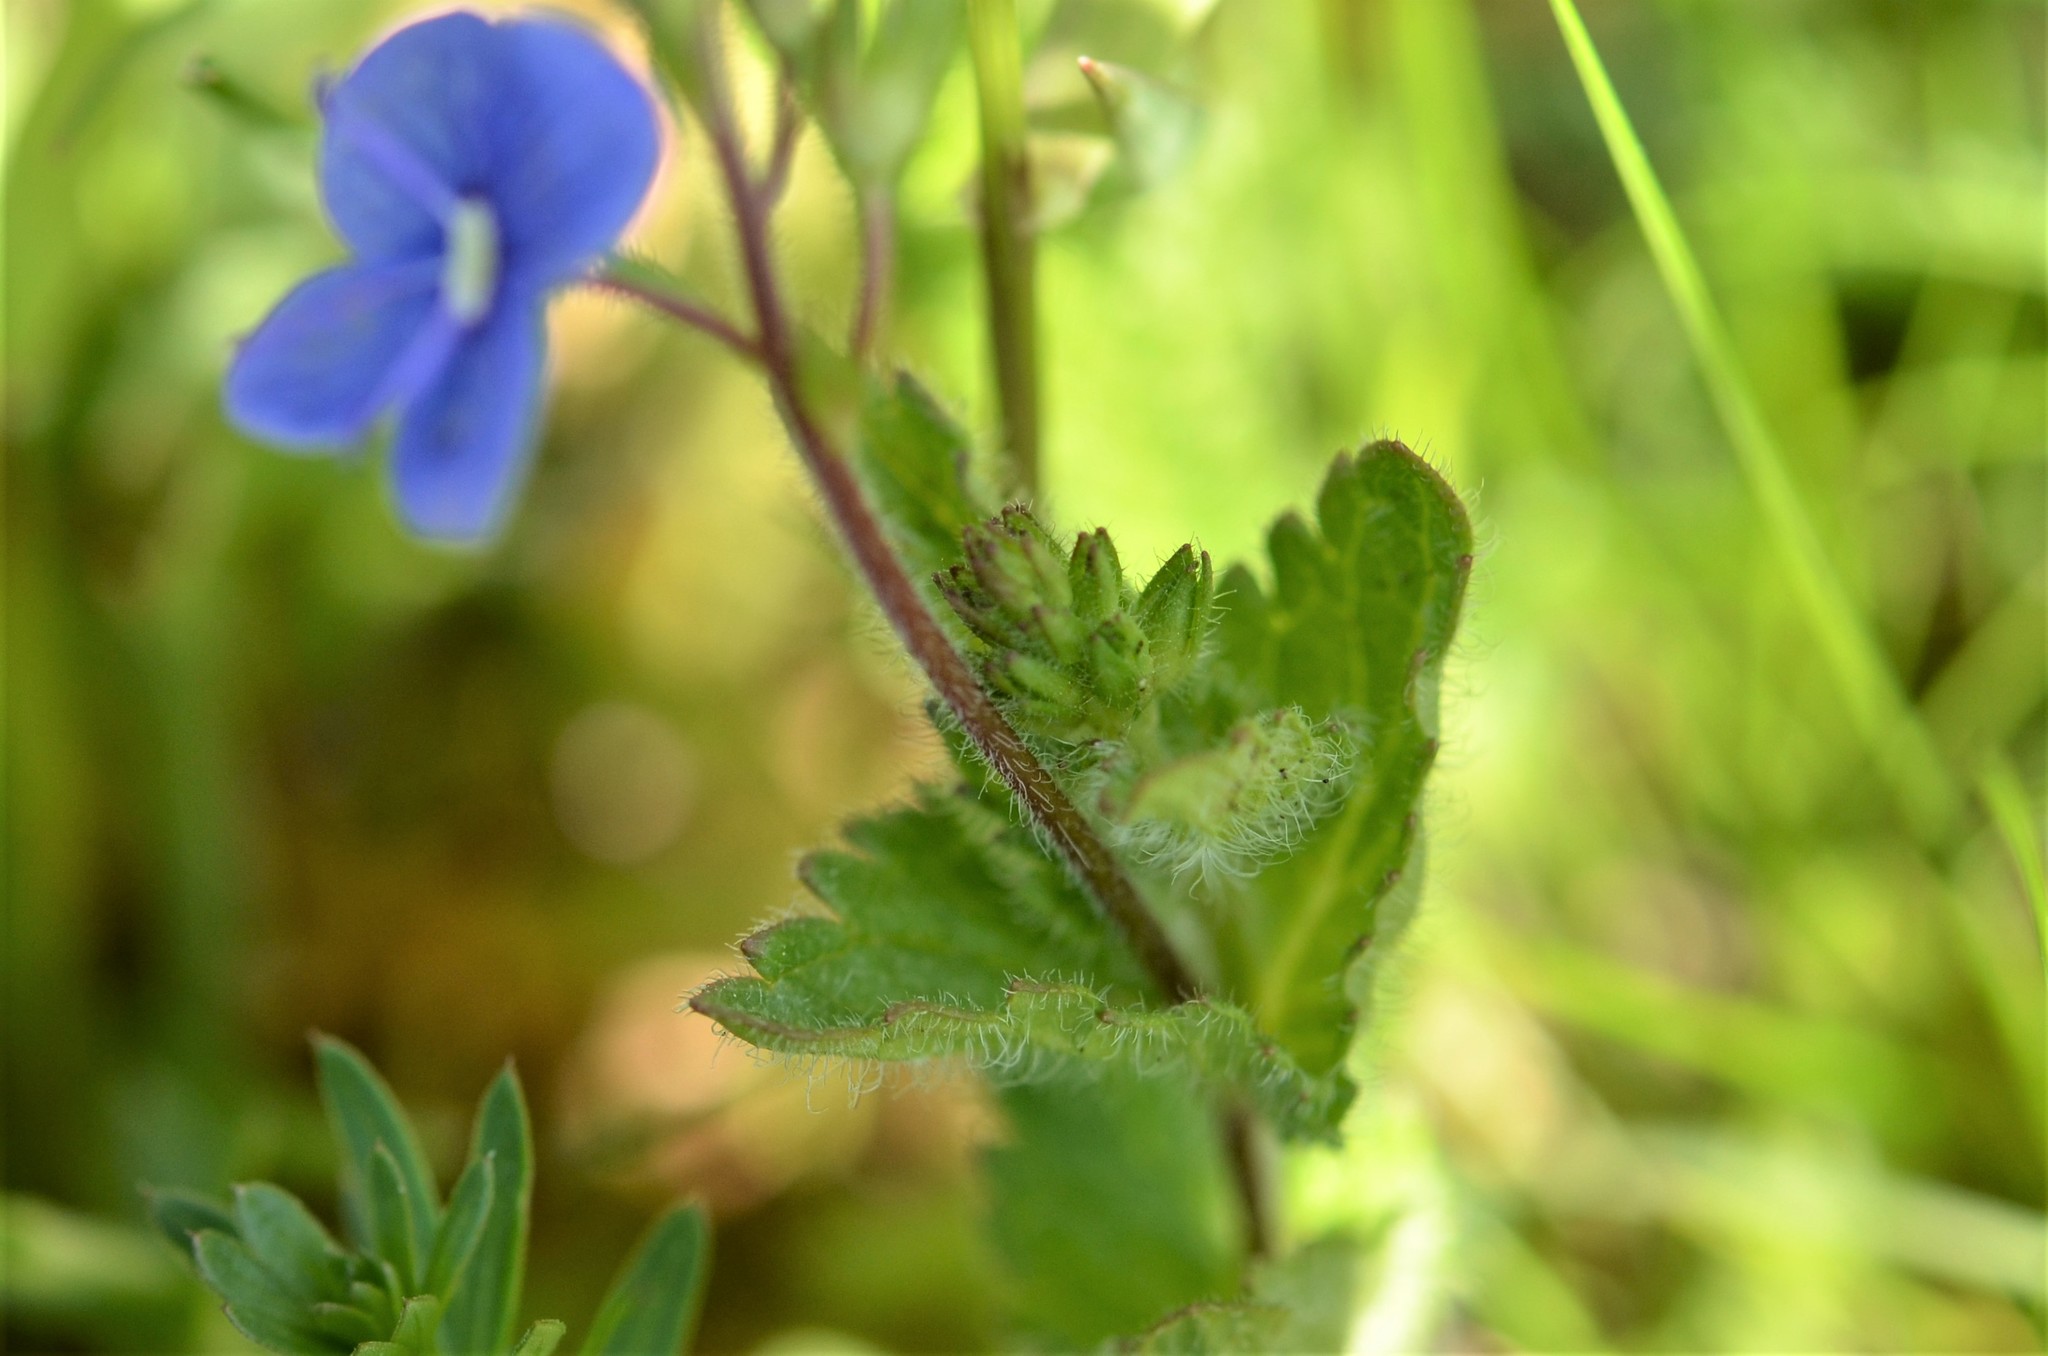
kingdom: Plantae
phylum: Tracheophyta
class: Magnoliopsida
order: Lamiales
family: Plantaginaceae
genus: Veronica
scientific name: Veronica chamaedrys
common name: Germander speedwell
